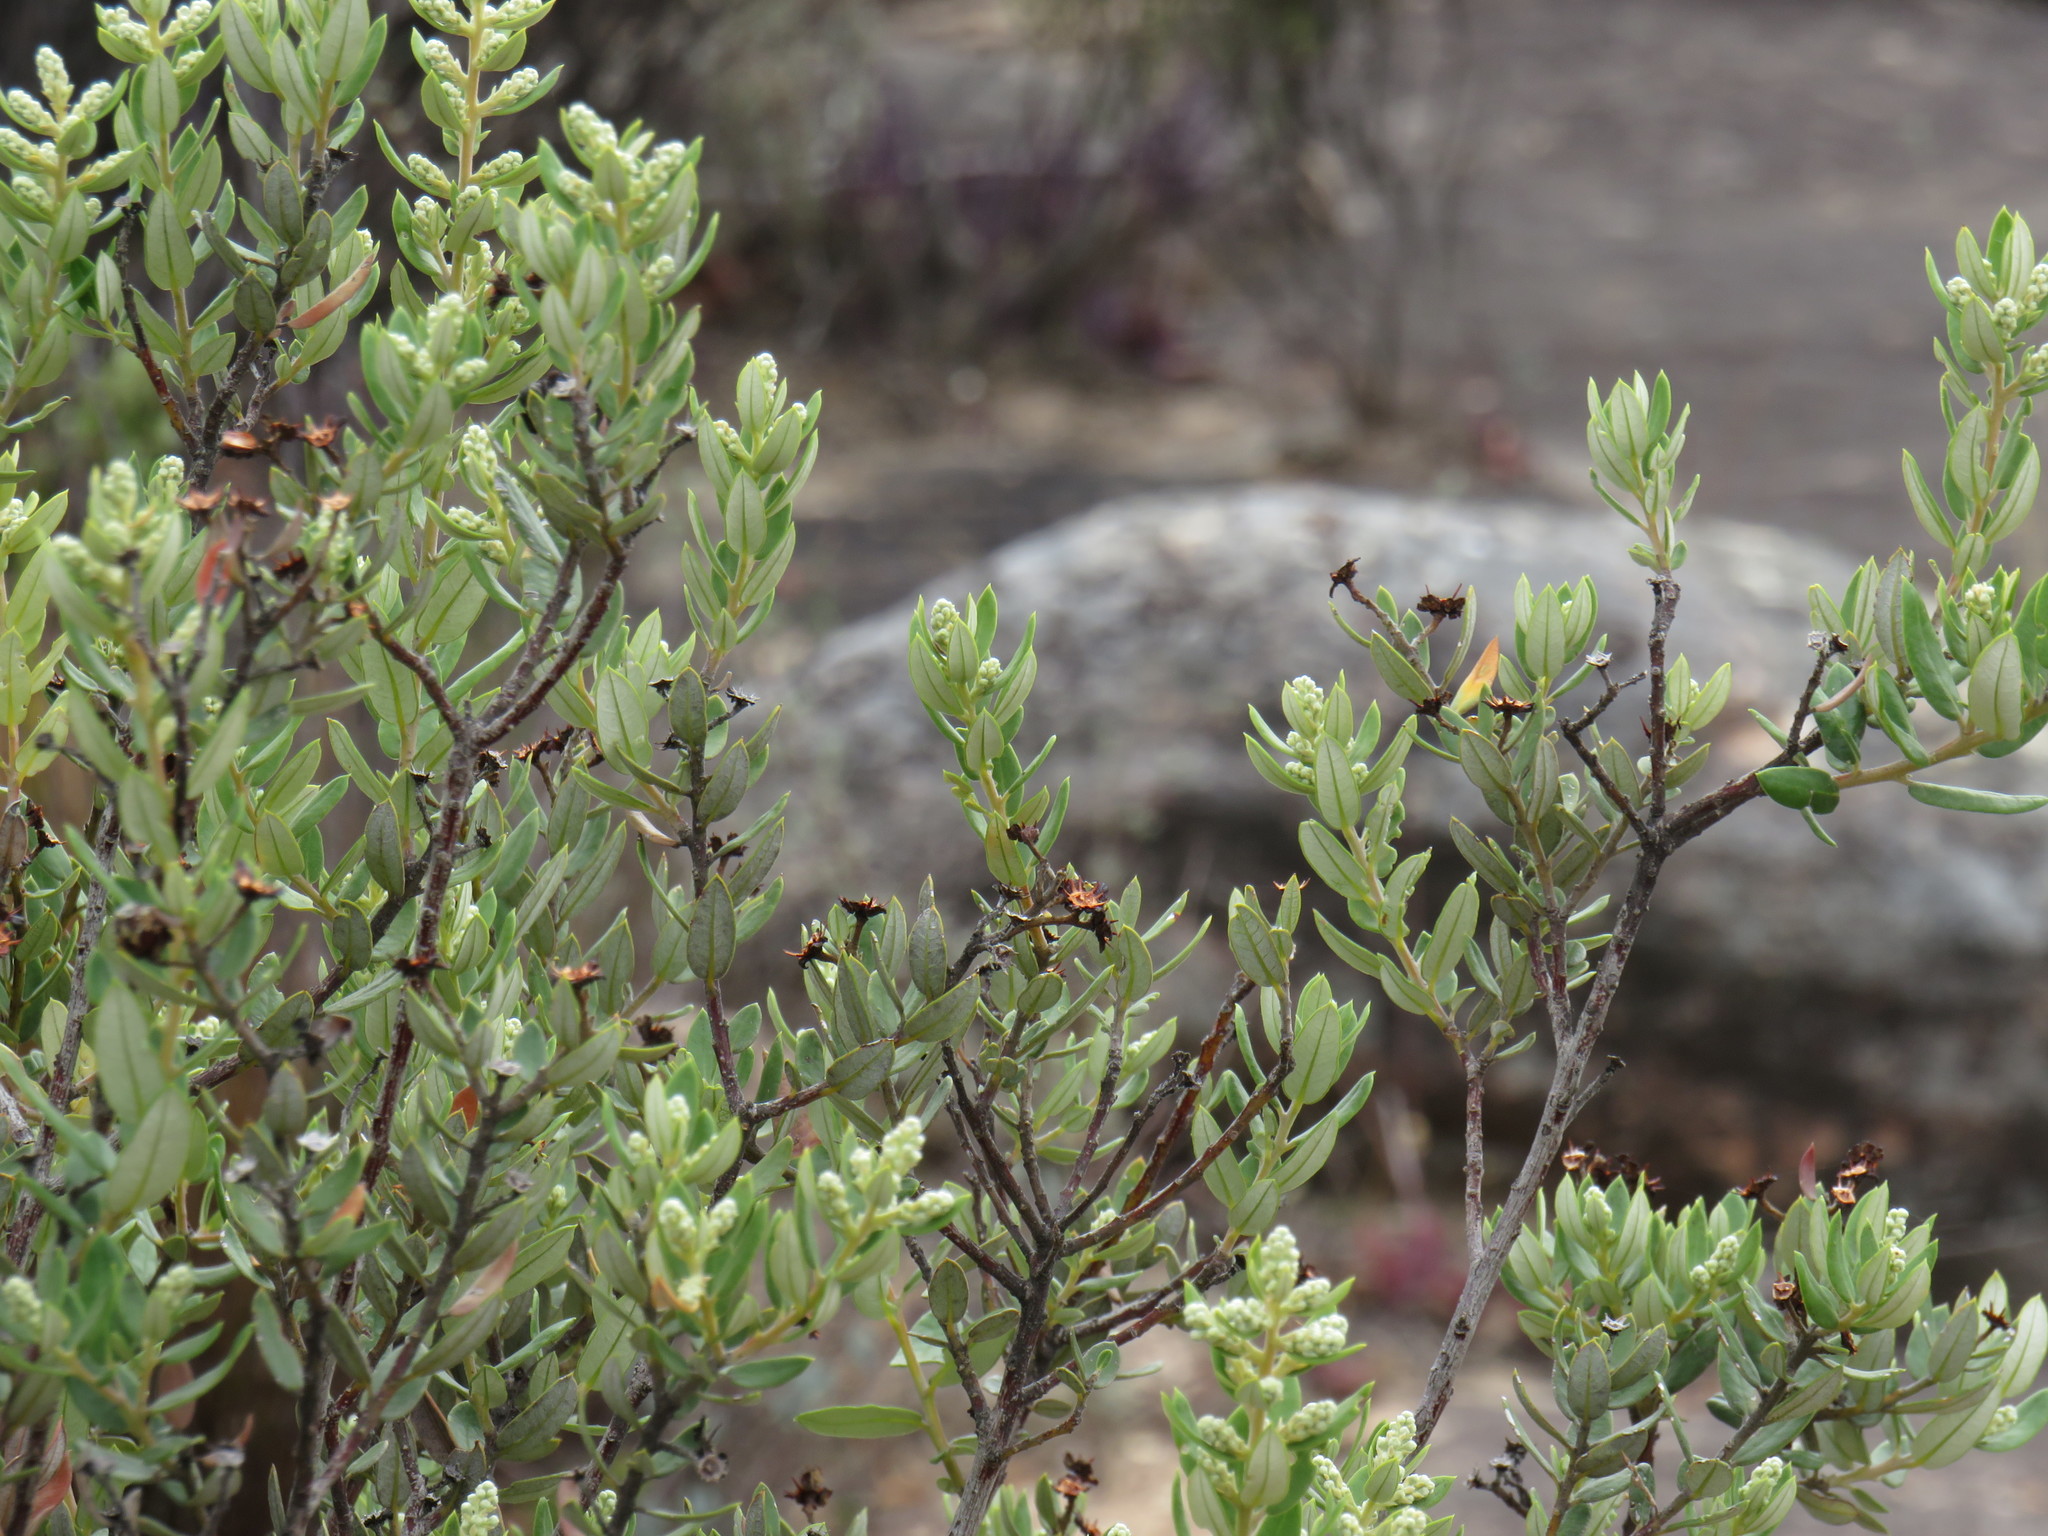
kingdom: Plantae
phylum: Tracheophyta
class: Magnoliopsida
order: Rosales
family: Rhamnaceae
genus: Phylica
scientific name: Phylica oleifolia
